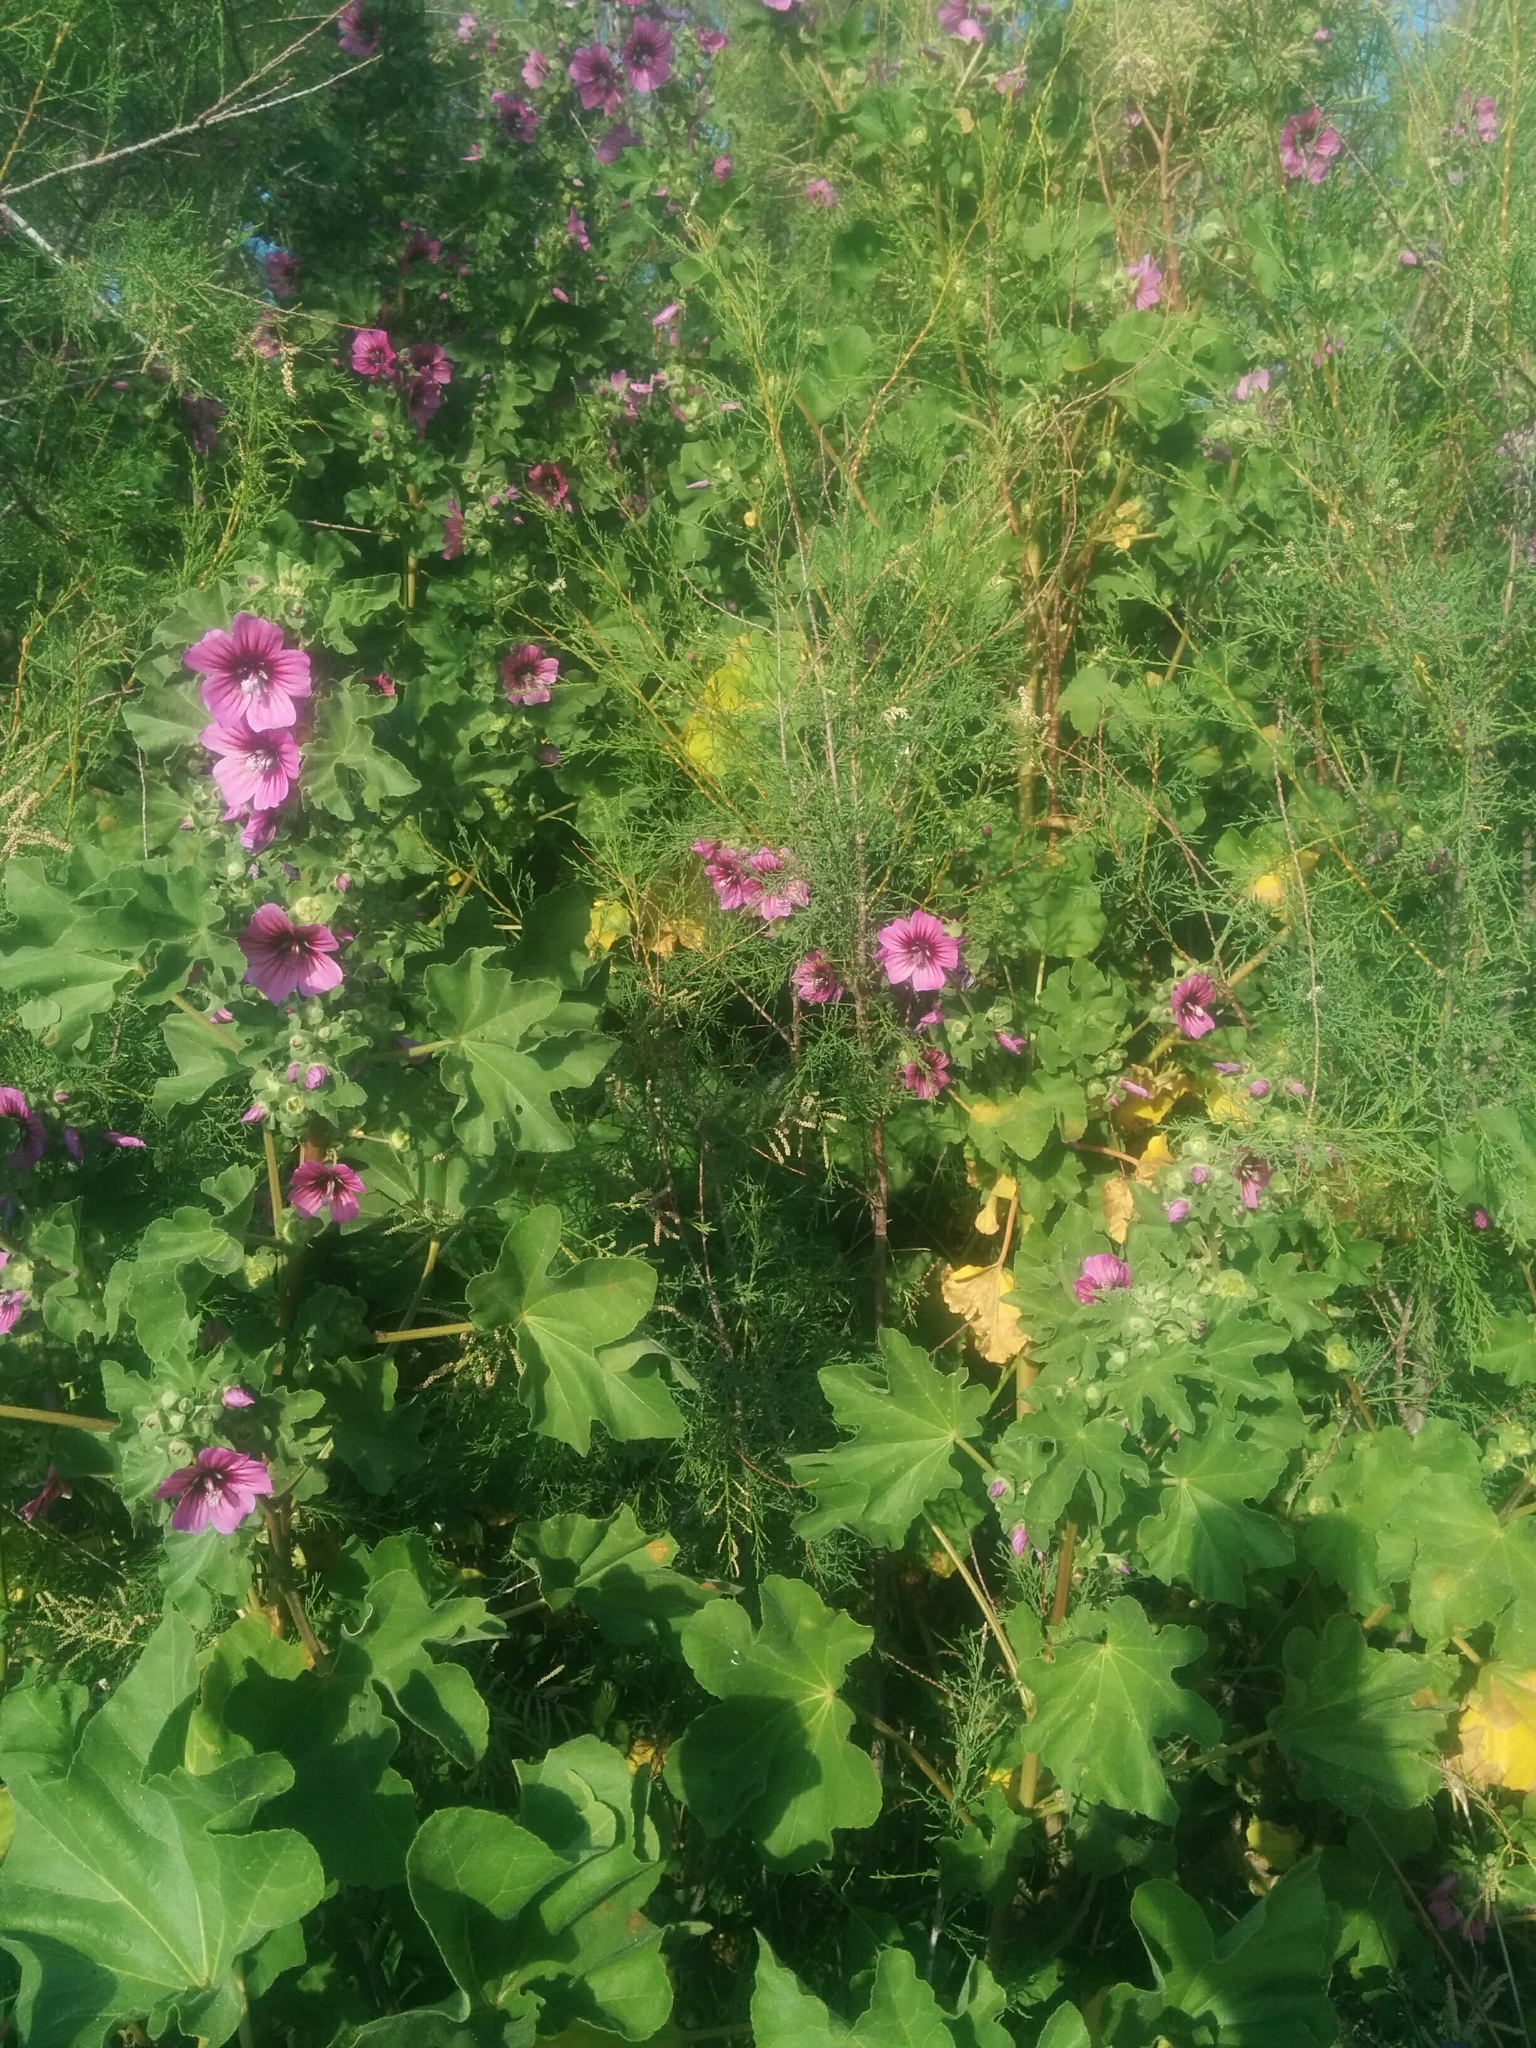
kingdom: Plantae
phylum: Tracheophyta
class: Magnoliopsida
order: Malvales
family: Malvaceae
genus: Malva
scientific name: Malva arborea
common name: Tree mallow
